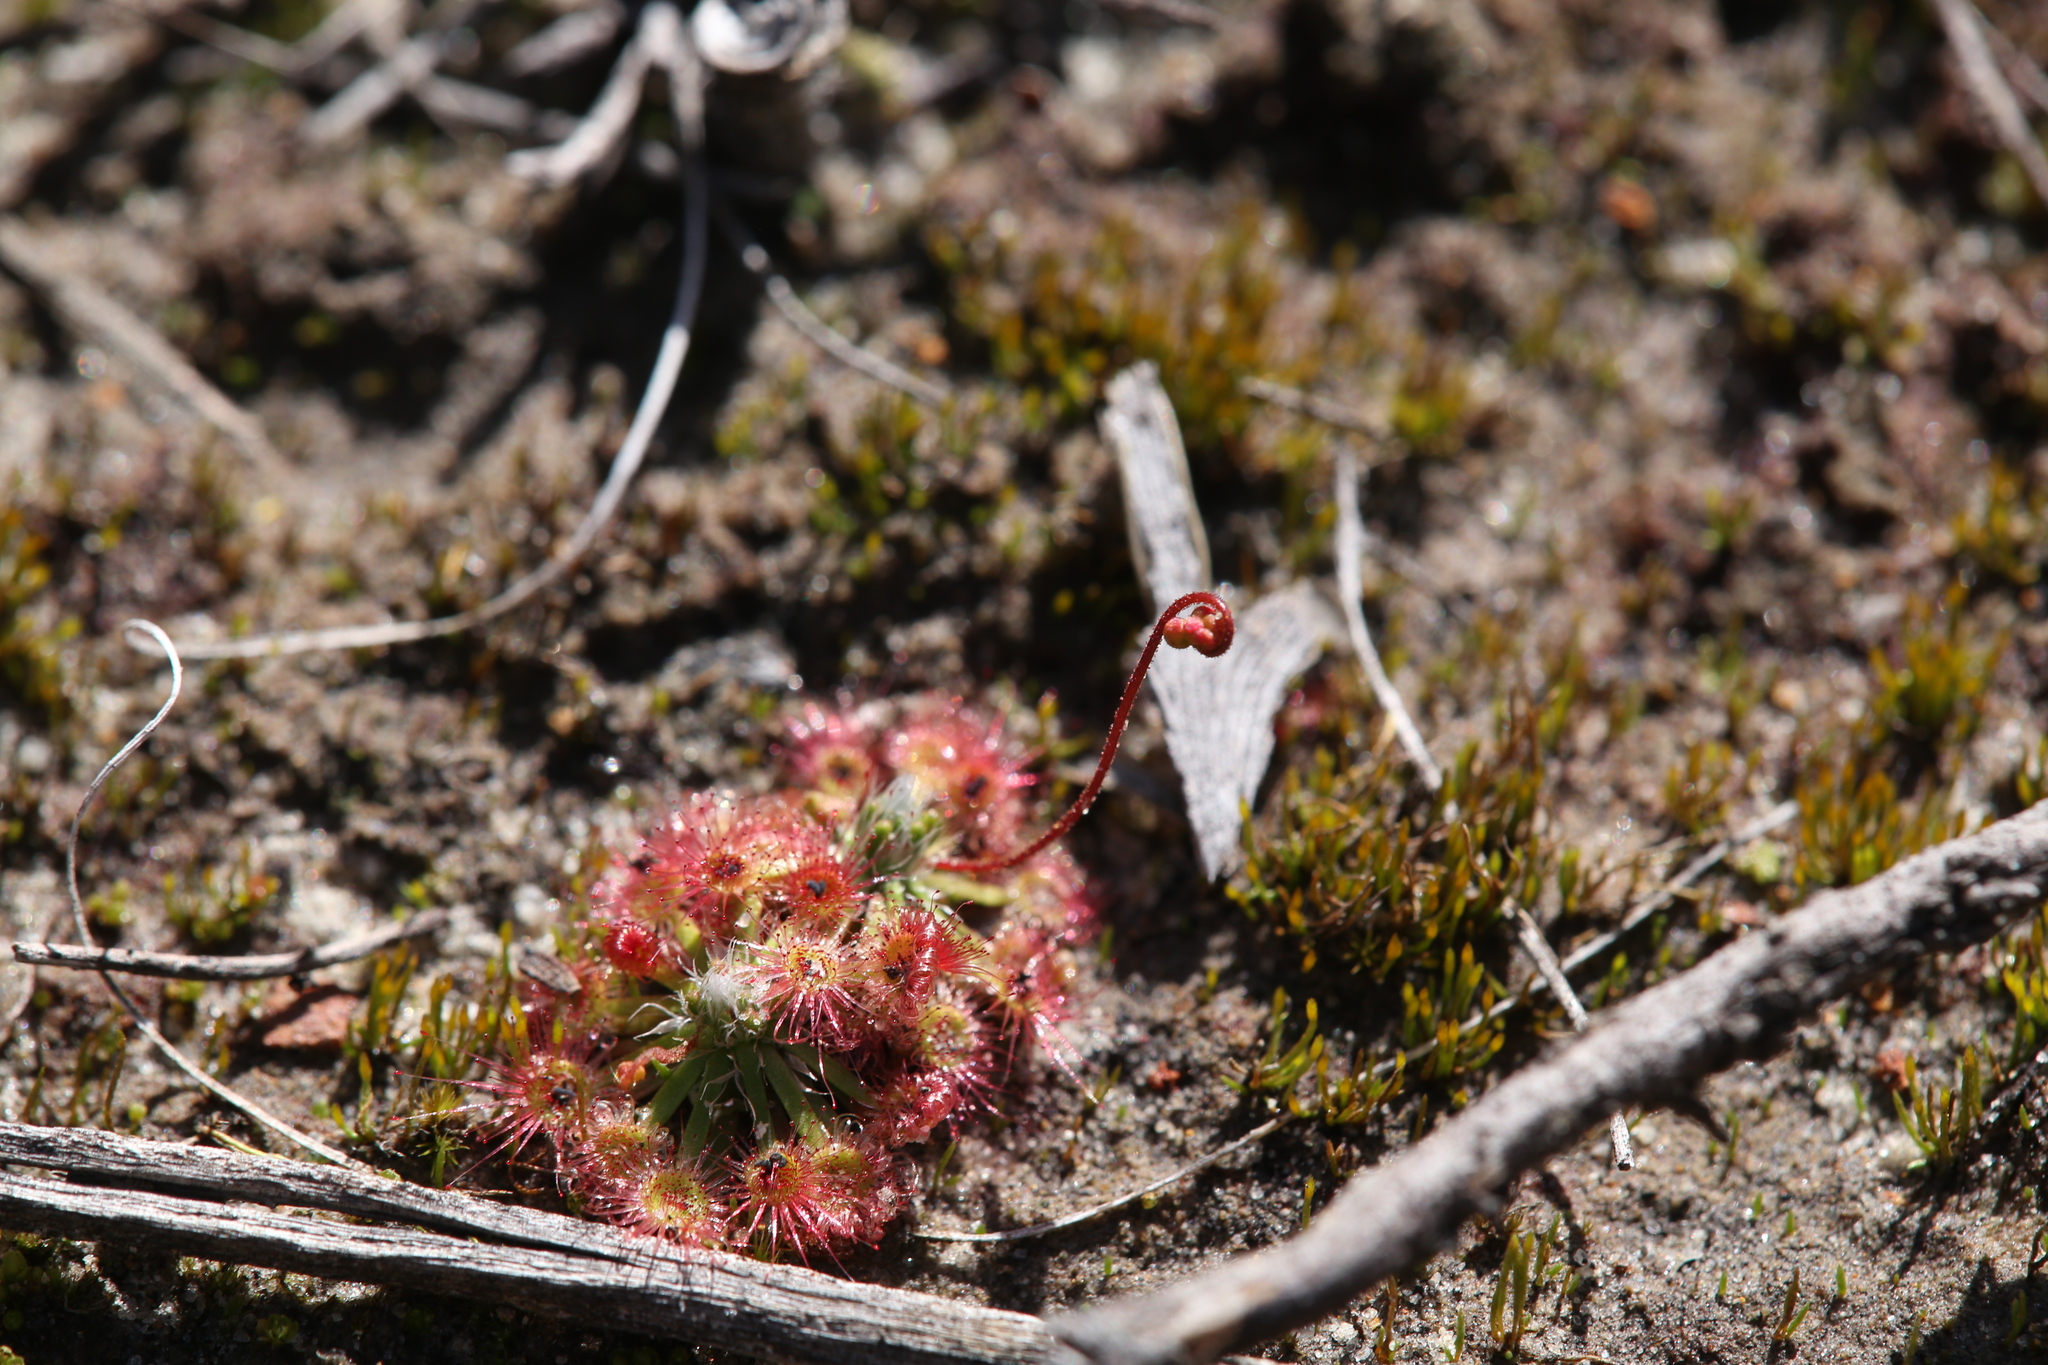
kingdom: Plantae
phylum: Tracheophyta
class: Magnoliopsida
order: Caryophyllales
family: Droseraceae
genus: Drosera
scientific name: Drosera spilos
